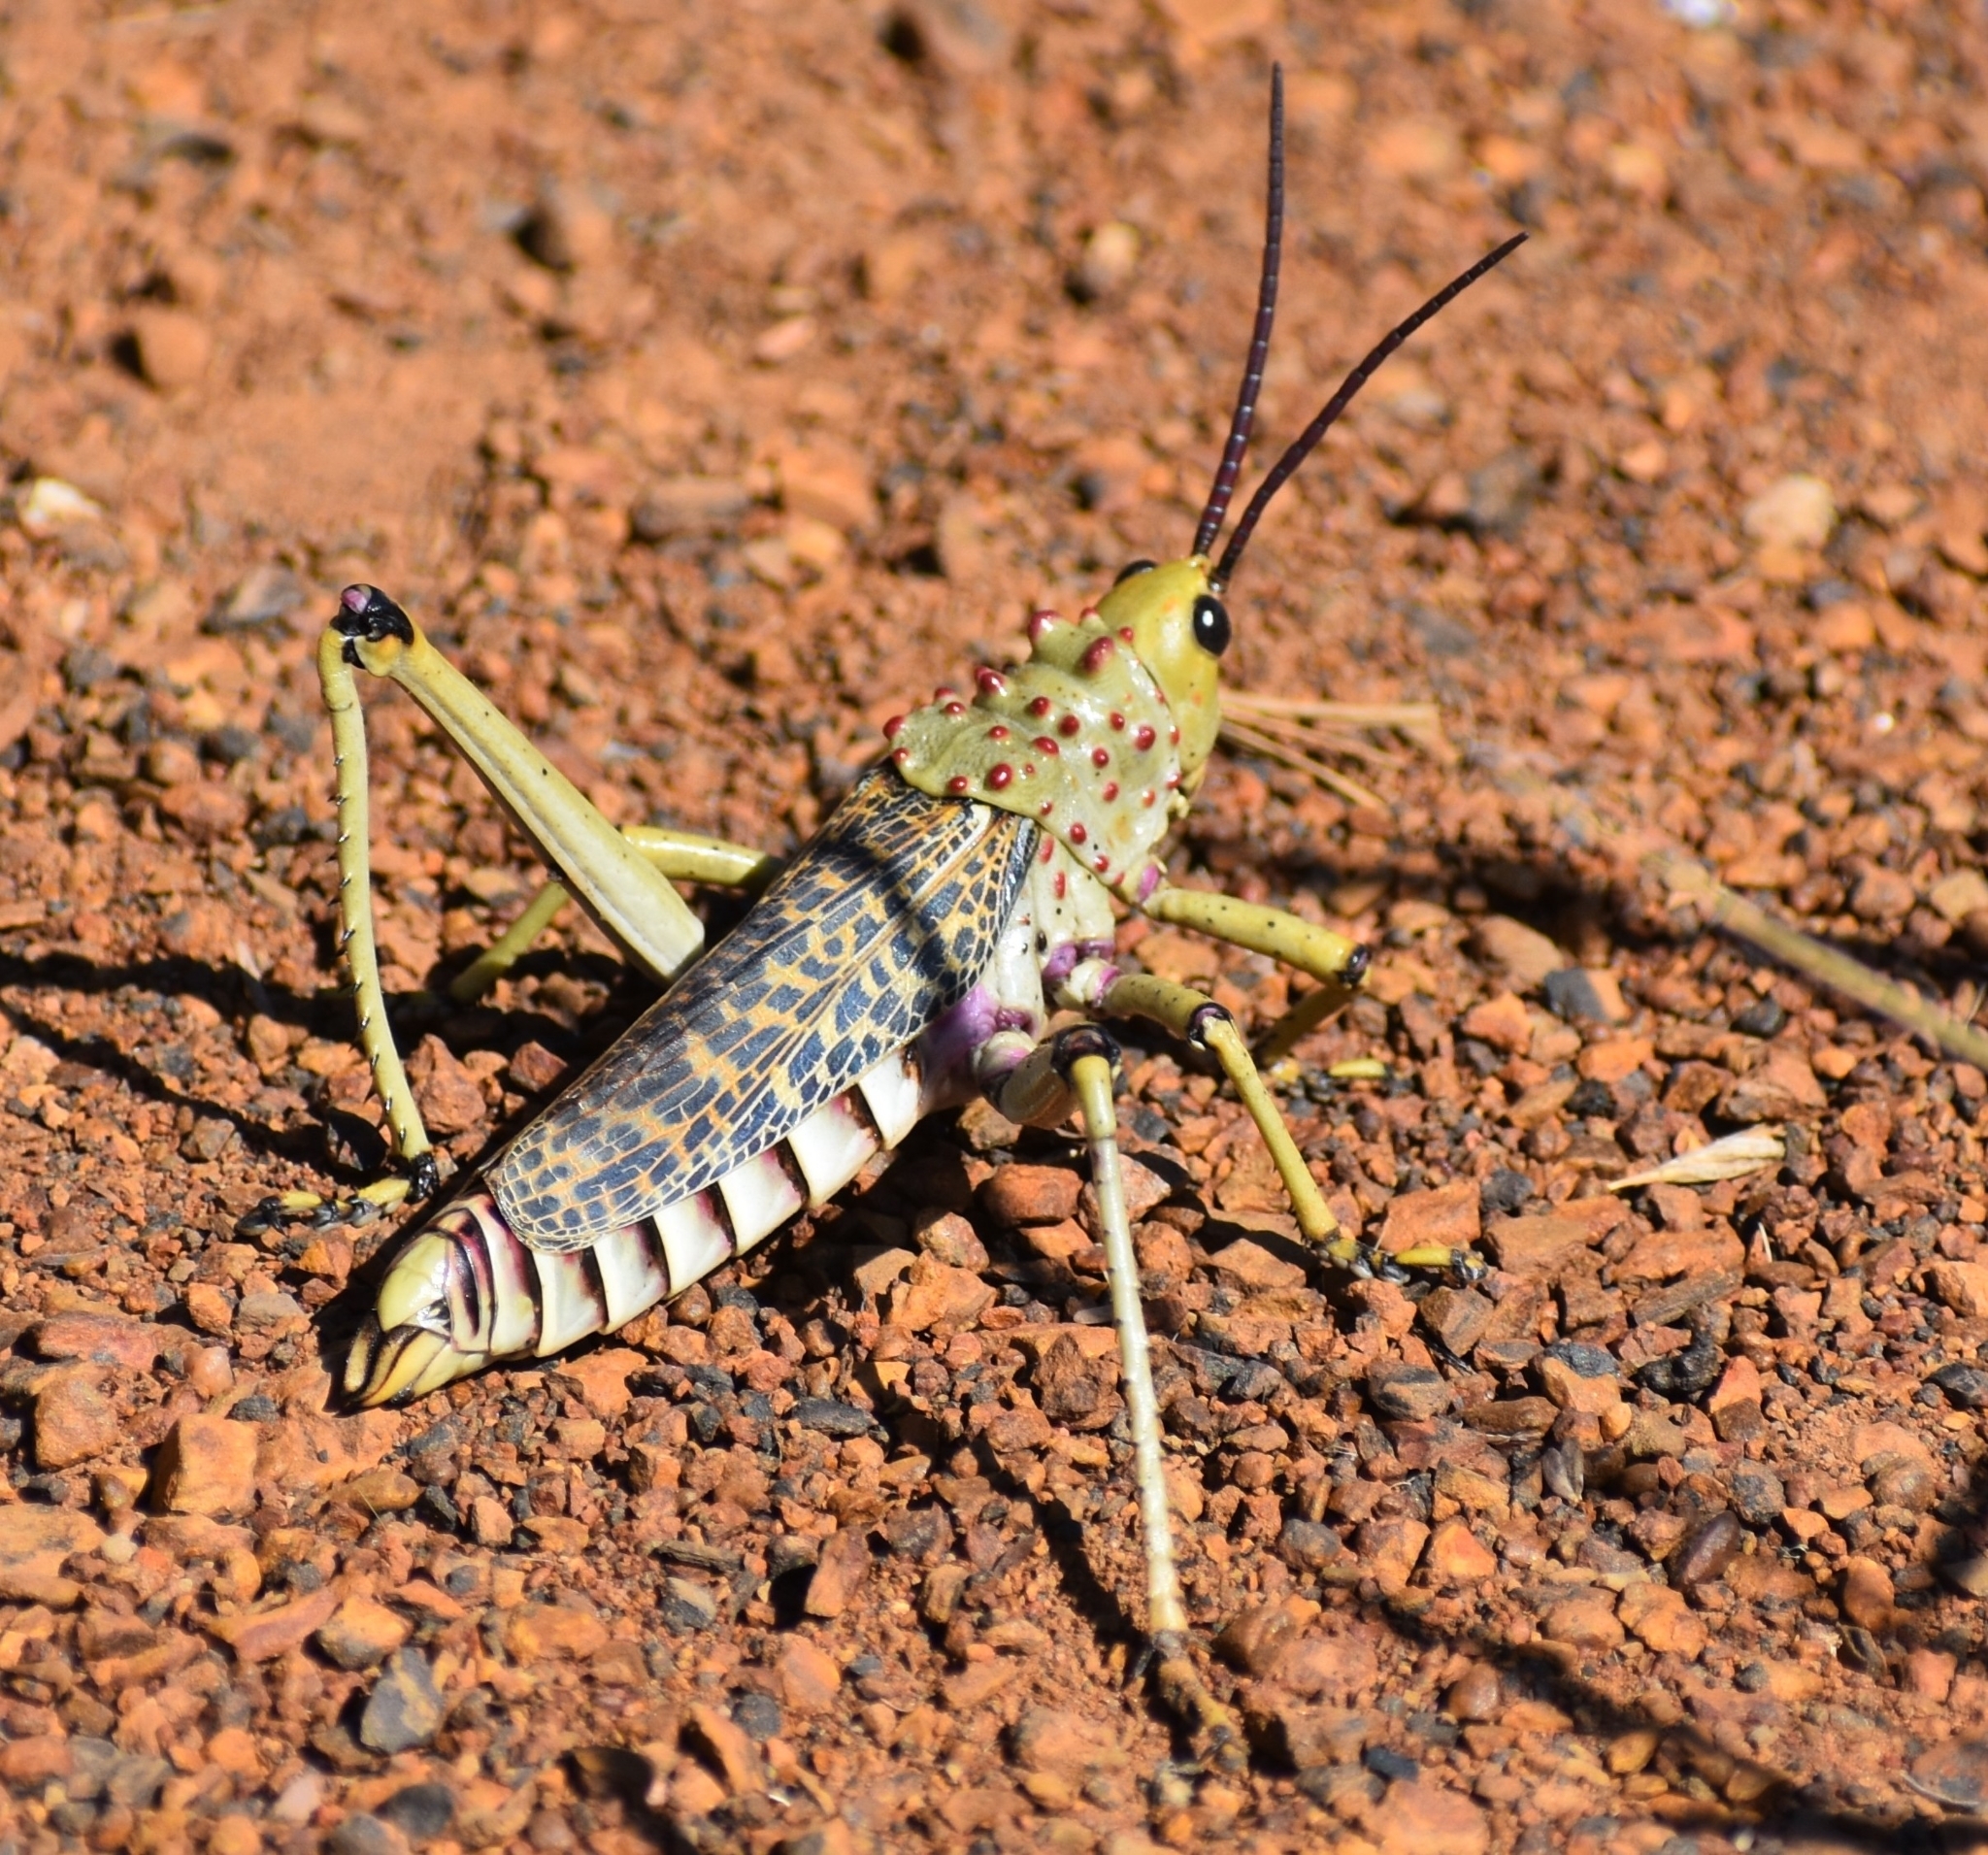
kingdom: Animalia
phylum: Arthropoda
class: Insecta
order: Orthoptera
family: Pyrgomorphidae
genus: Phymateus
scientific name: Phymateus baccatus
